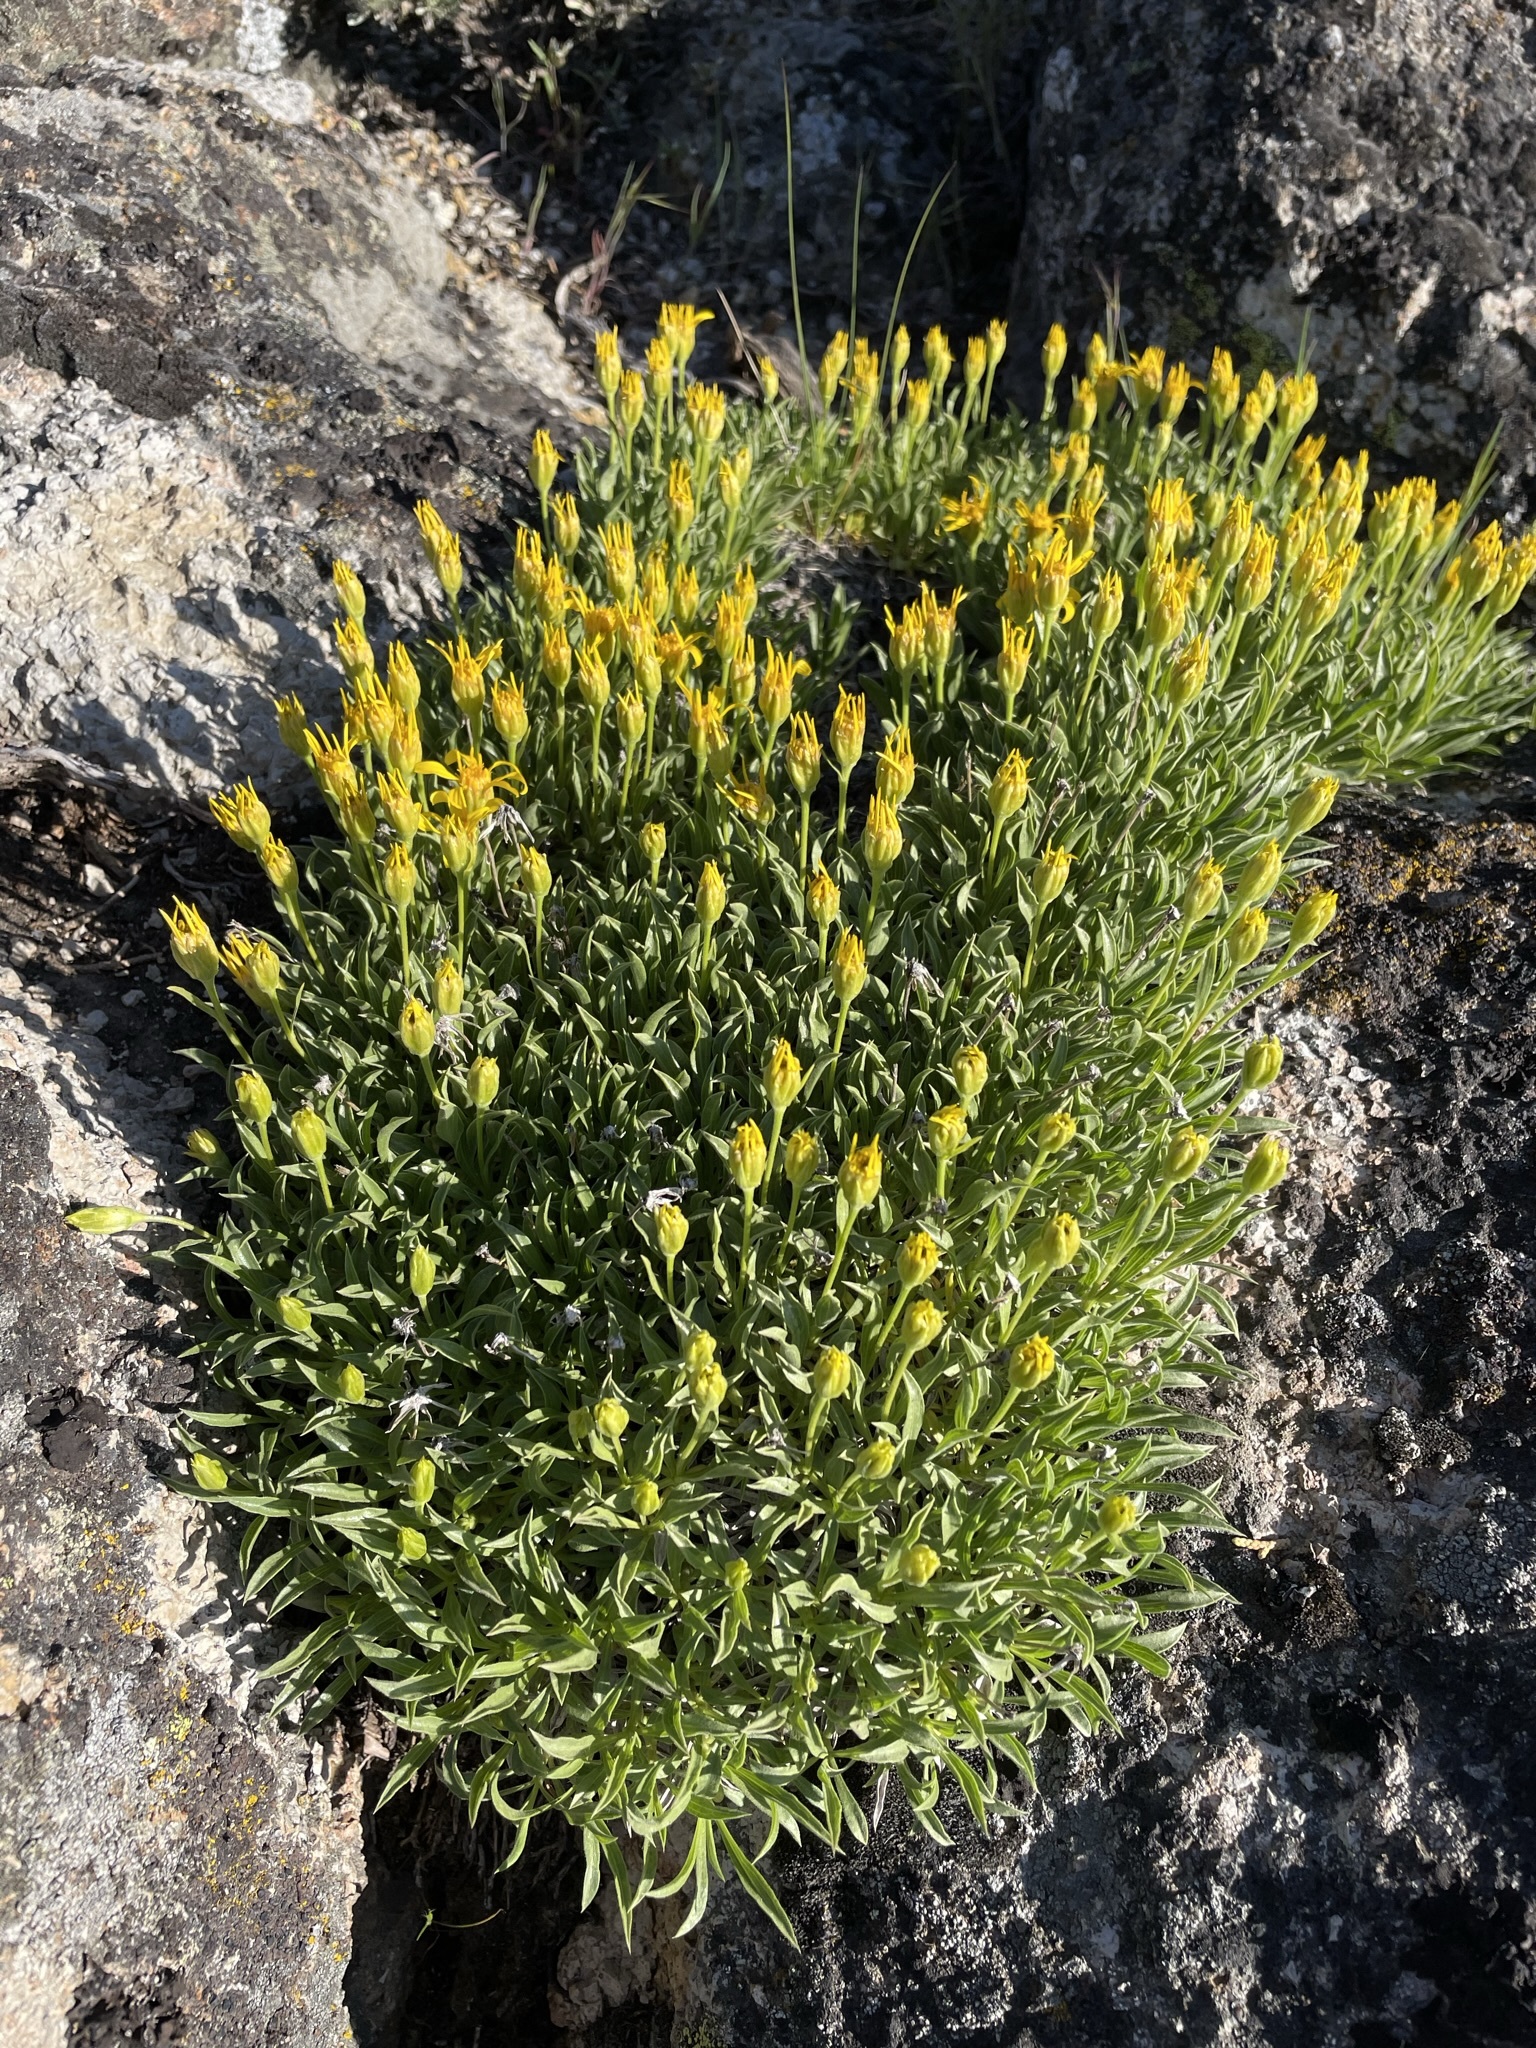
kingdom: Plantae
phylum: Tracheophyta
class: Magnoliopsida
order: Asterales
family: Asteraceae
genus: Stenotus
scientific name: Stenotus acaulis
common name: Stemless goldenweed
